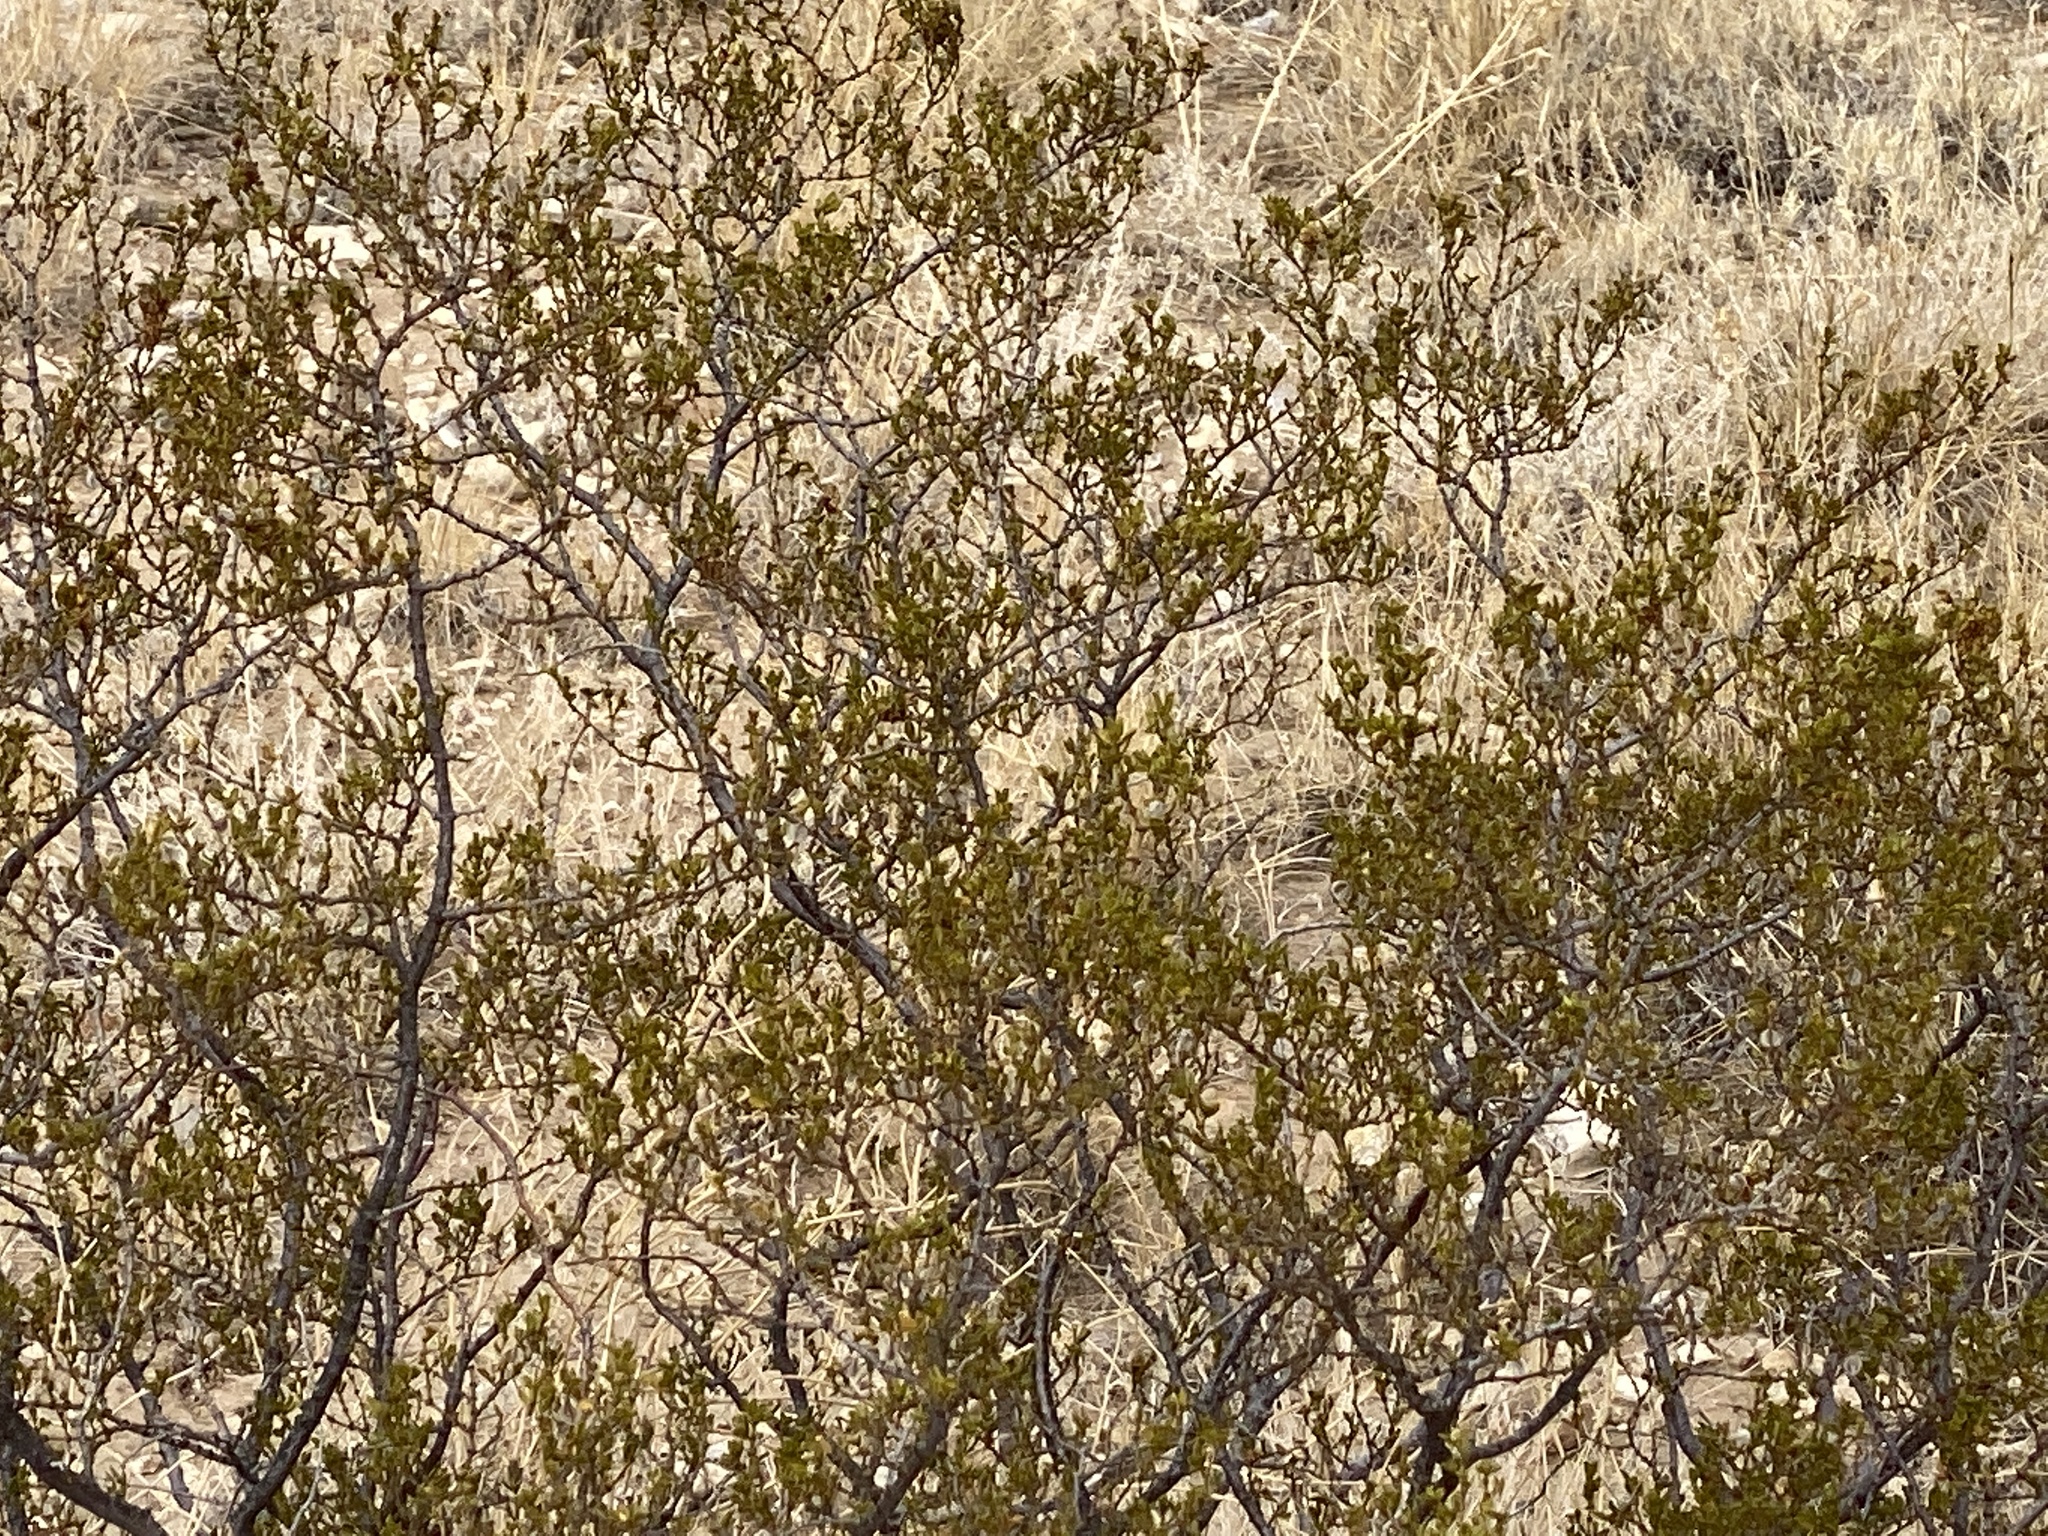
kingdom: Plantae
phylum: Tracheophyta
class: Magnoliopsida
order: Zygophyllales
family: Zygophyllaceae
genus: Larrea
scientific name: Larrea tridentata
